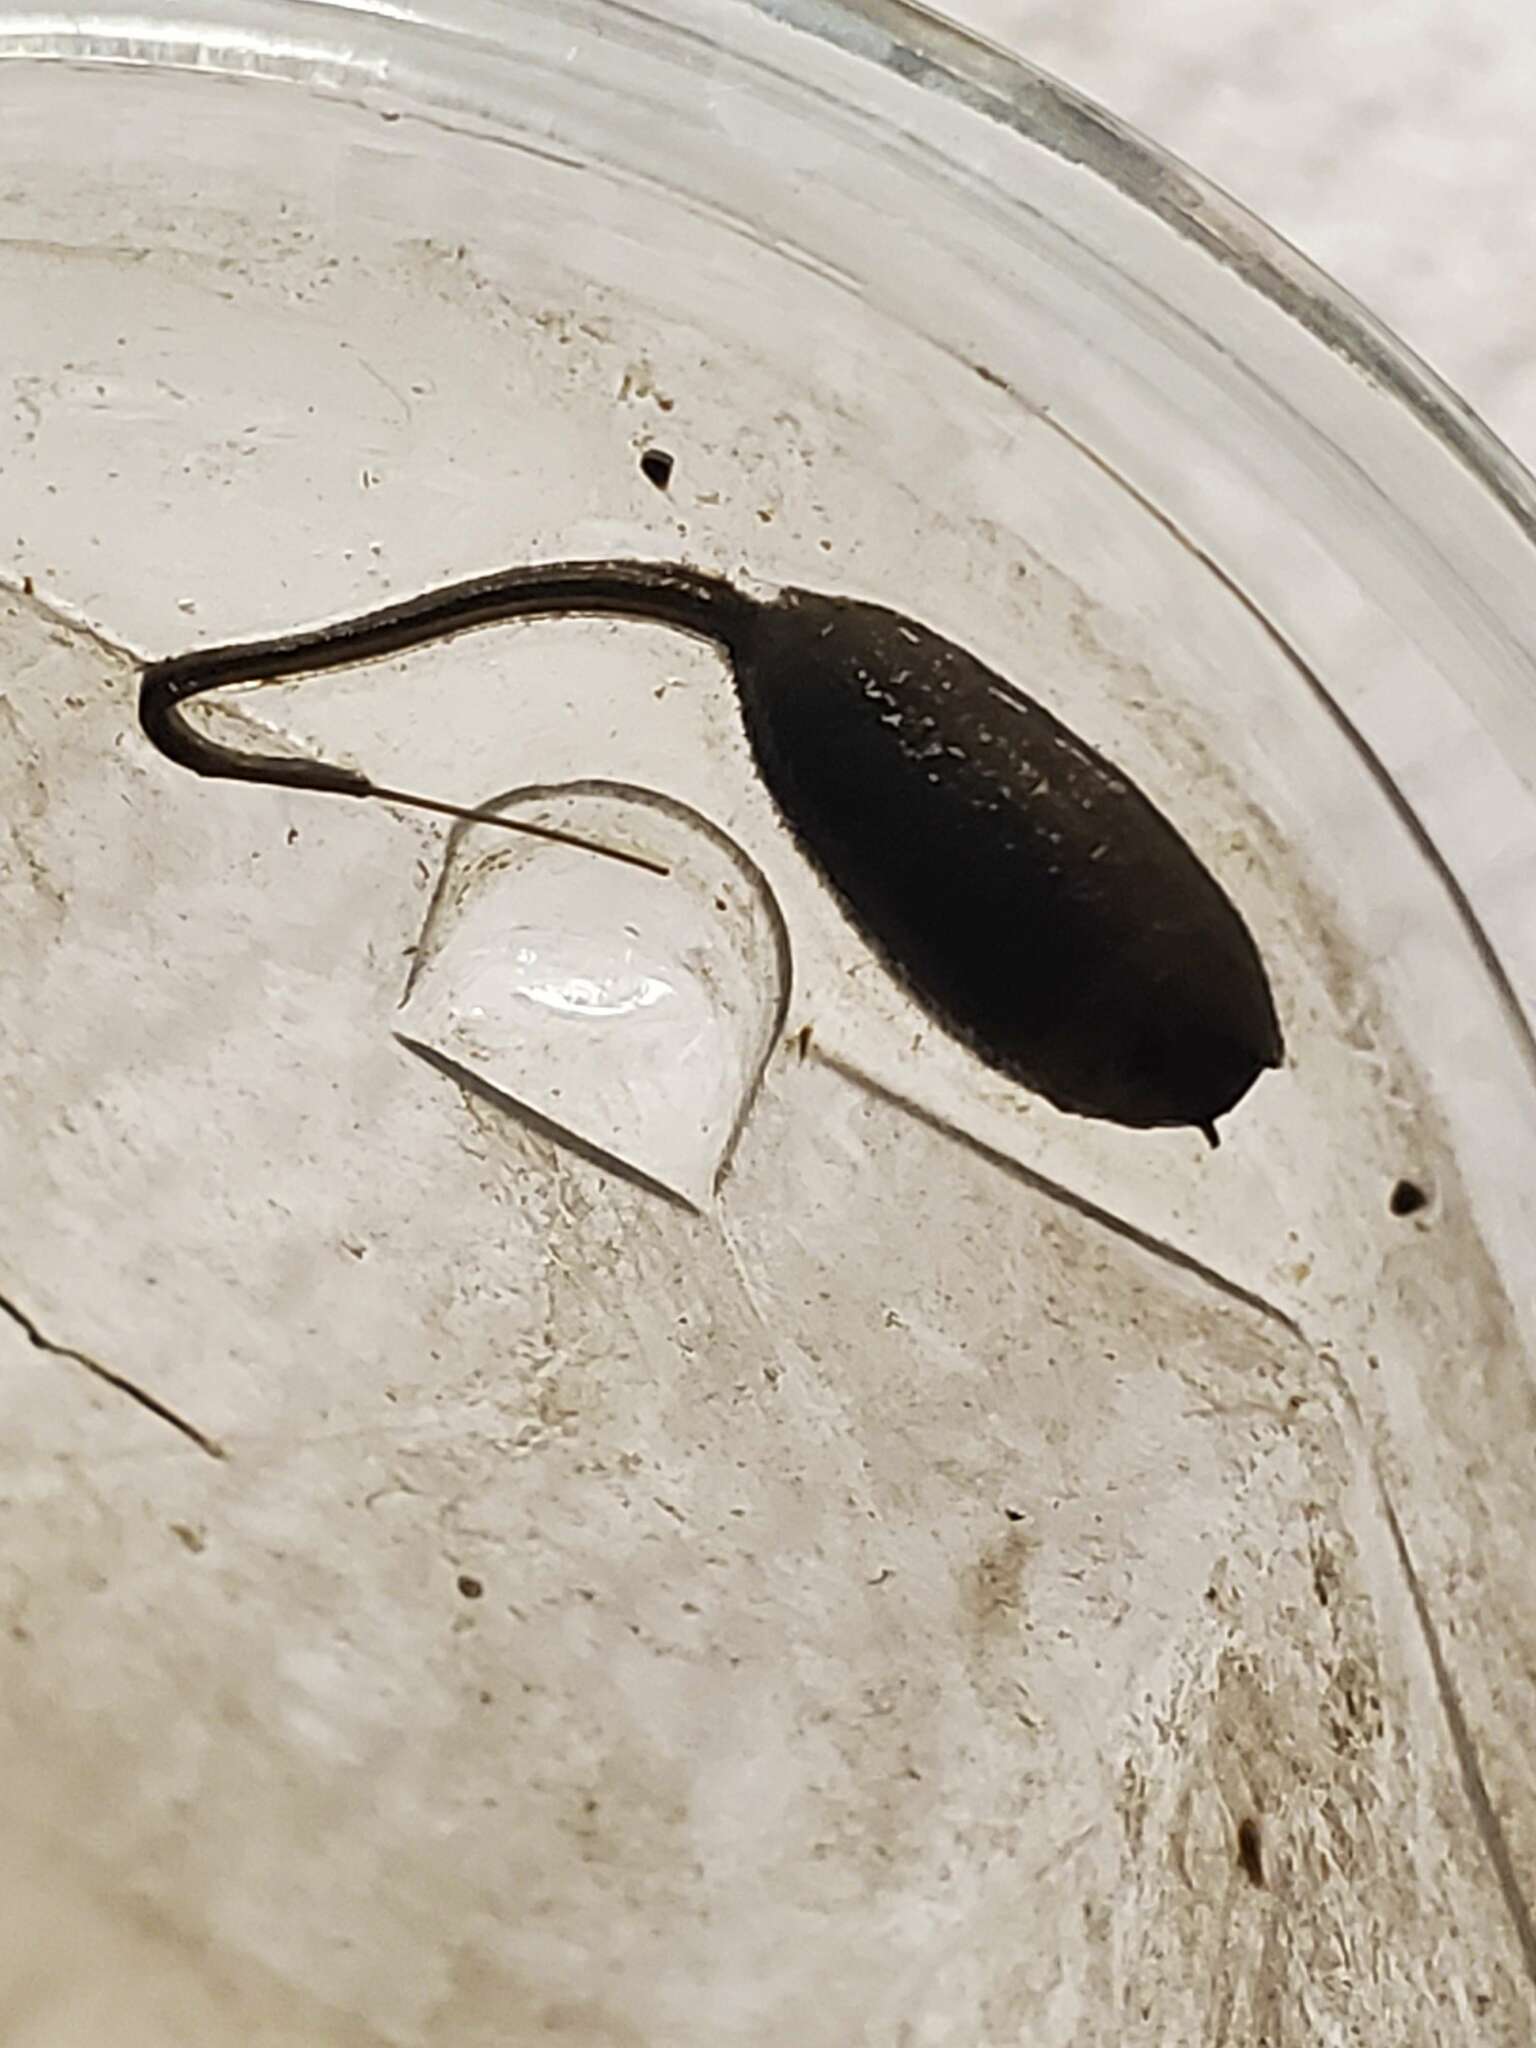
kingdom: Animalia
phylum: Arthropoda
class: Insecta
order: Diptera
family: Syrphidae
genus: Eristalis
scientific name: Eristalis anthophorina
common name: Orange-spotted drone fly
